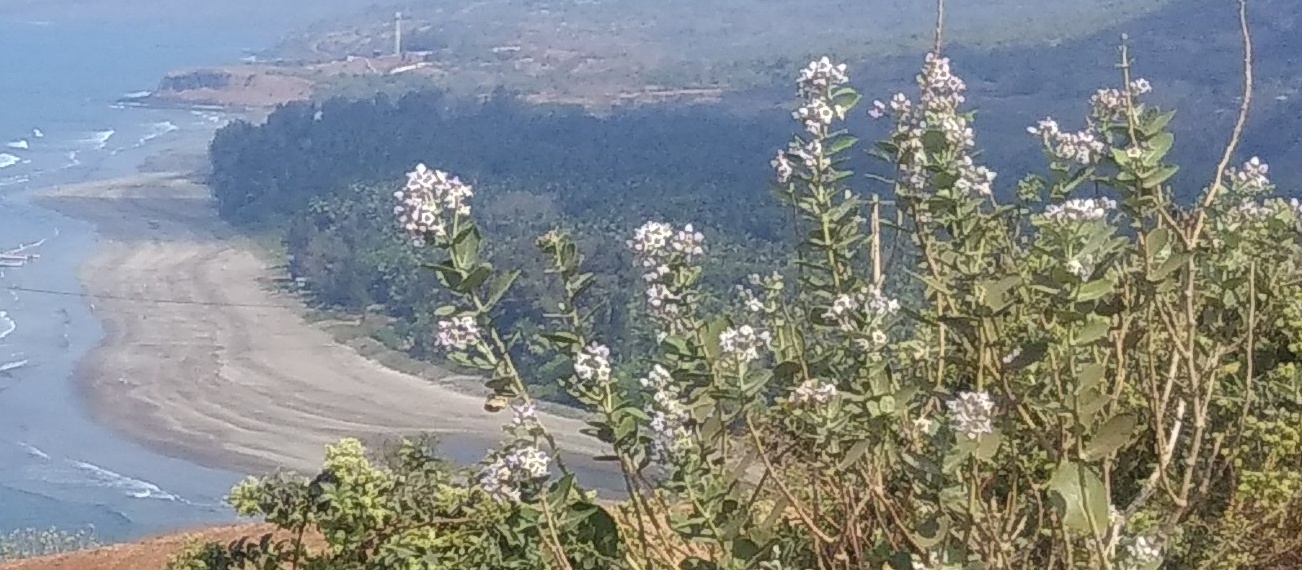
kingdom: Plantae
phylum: Tracheophyta
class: Magnoliopsida
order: Gentianales
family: Apocynaceae
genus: Calotropis
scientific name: Calotropis gigantea
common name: Crown flower
